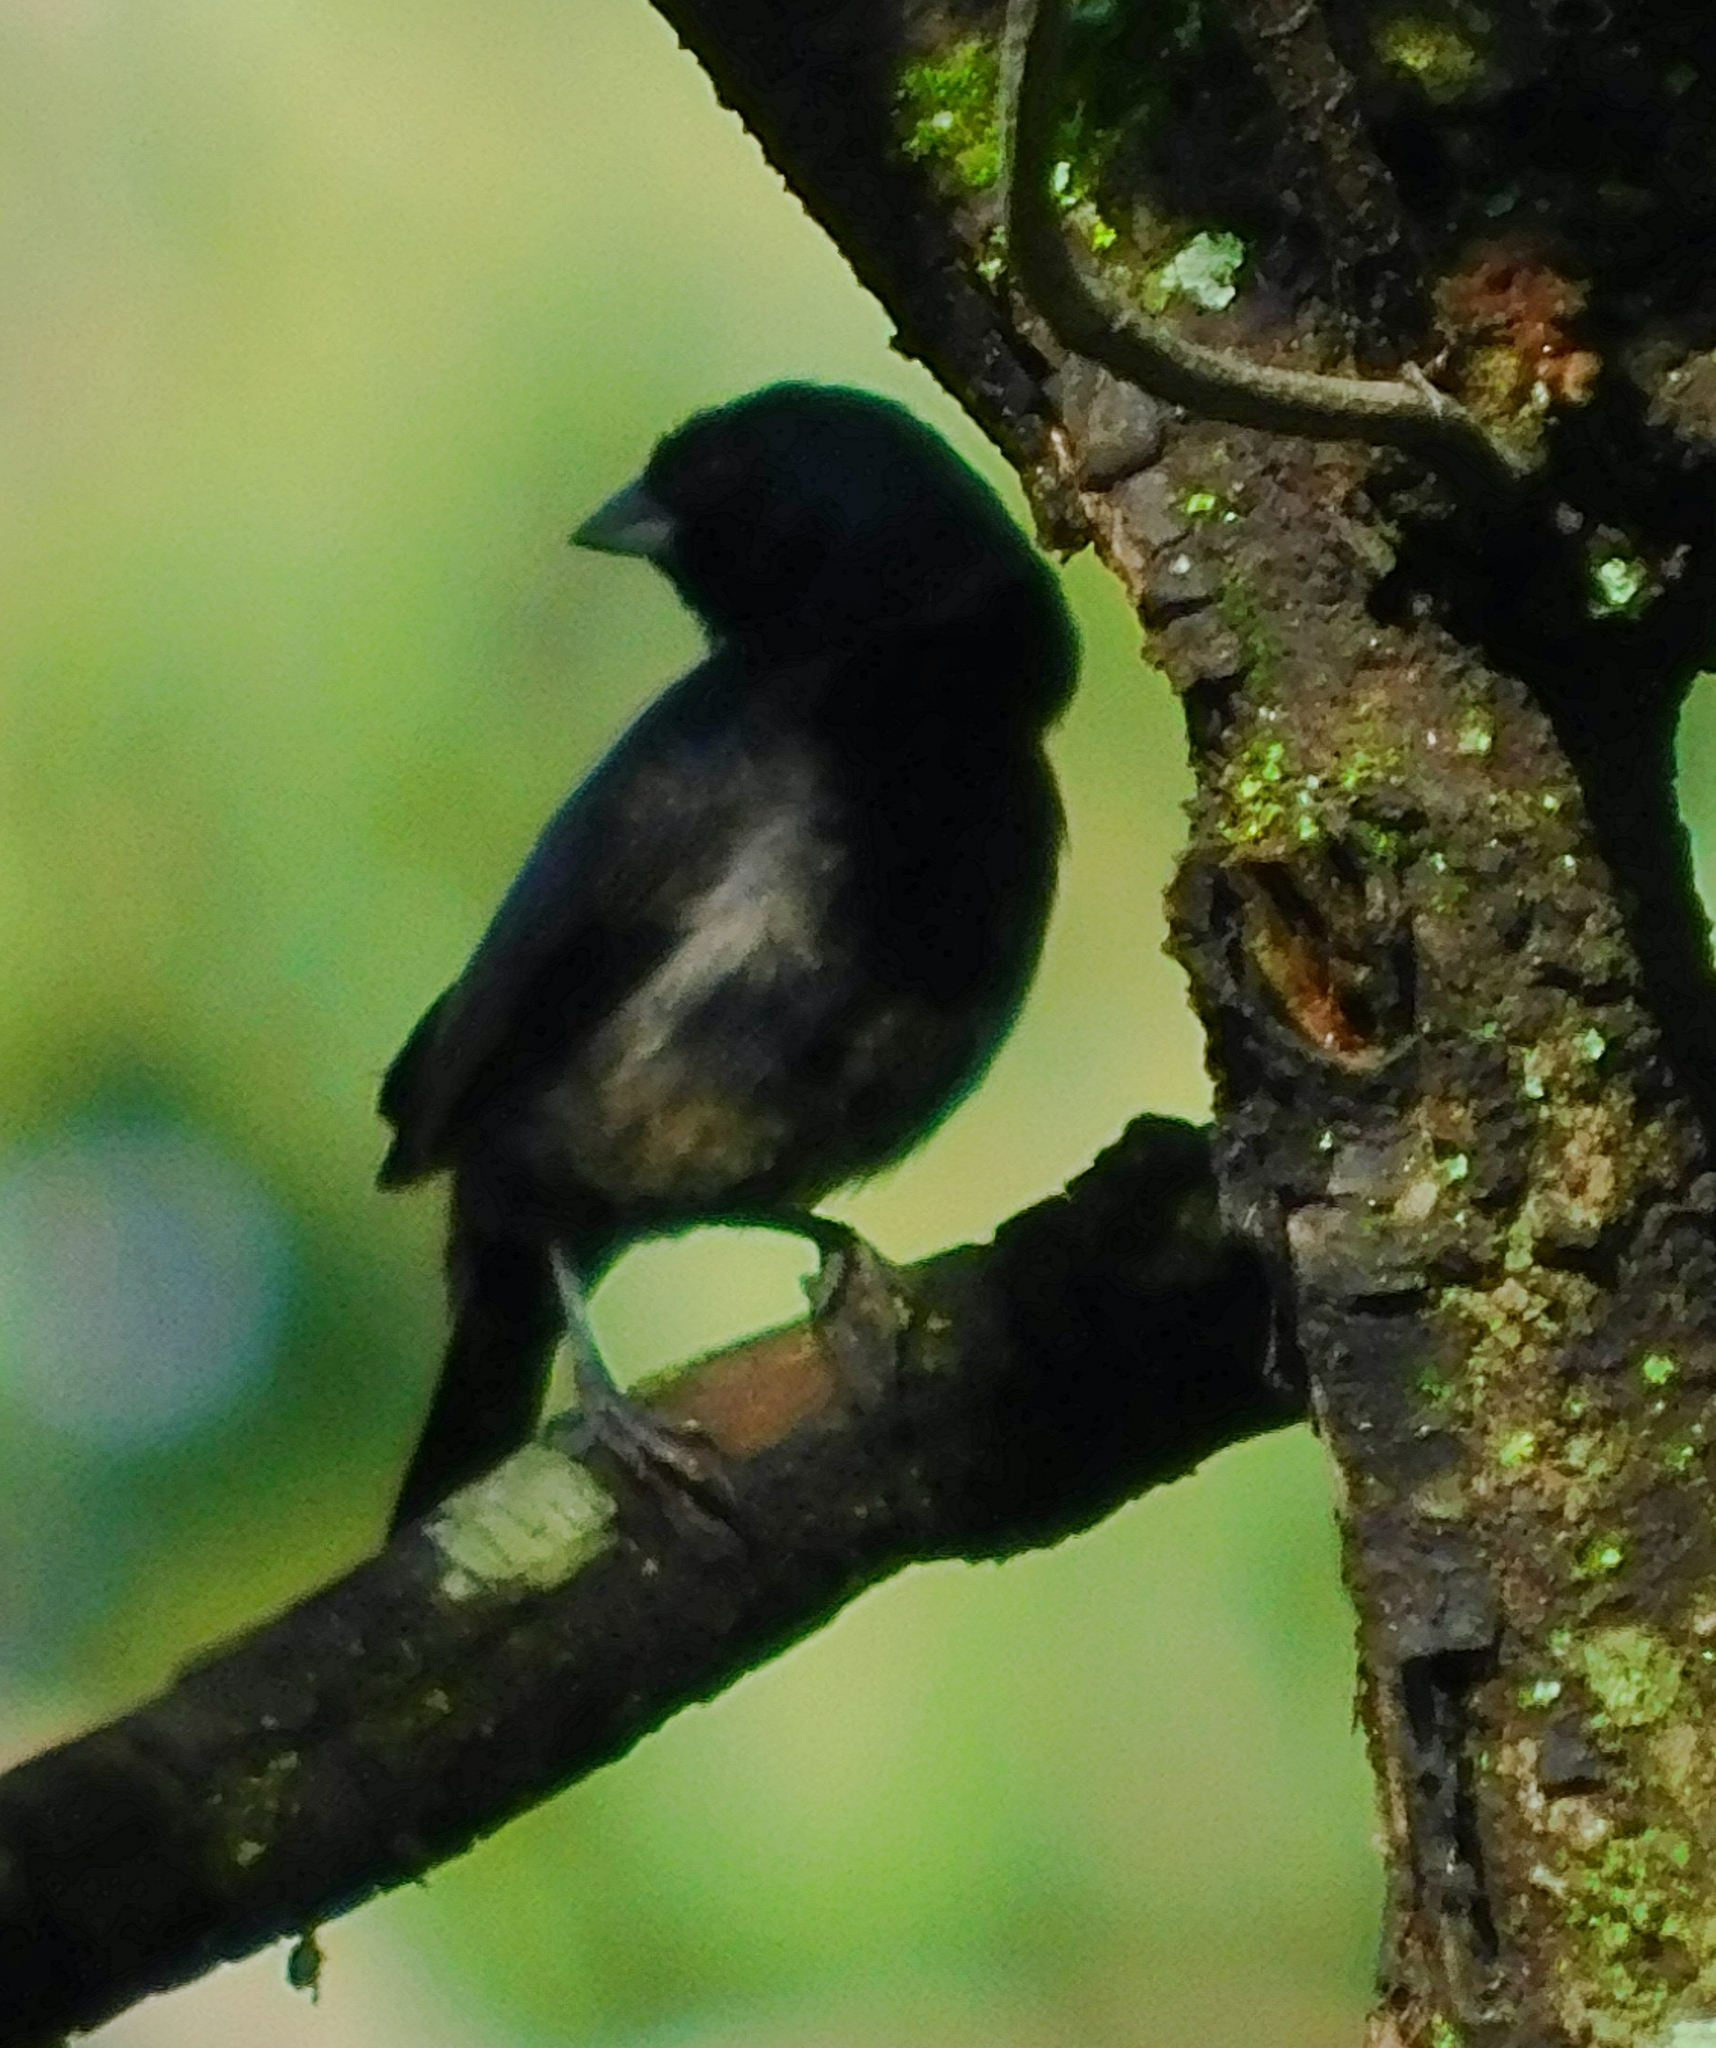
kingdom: Animalia
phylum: Chordata
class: Aves
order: Passeriformes
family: Thraupidae
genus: Volatinia
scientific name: Volatinia jacarina
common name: Blue-black grassquit
